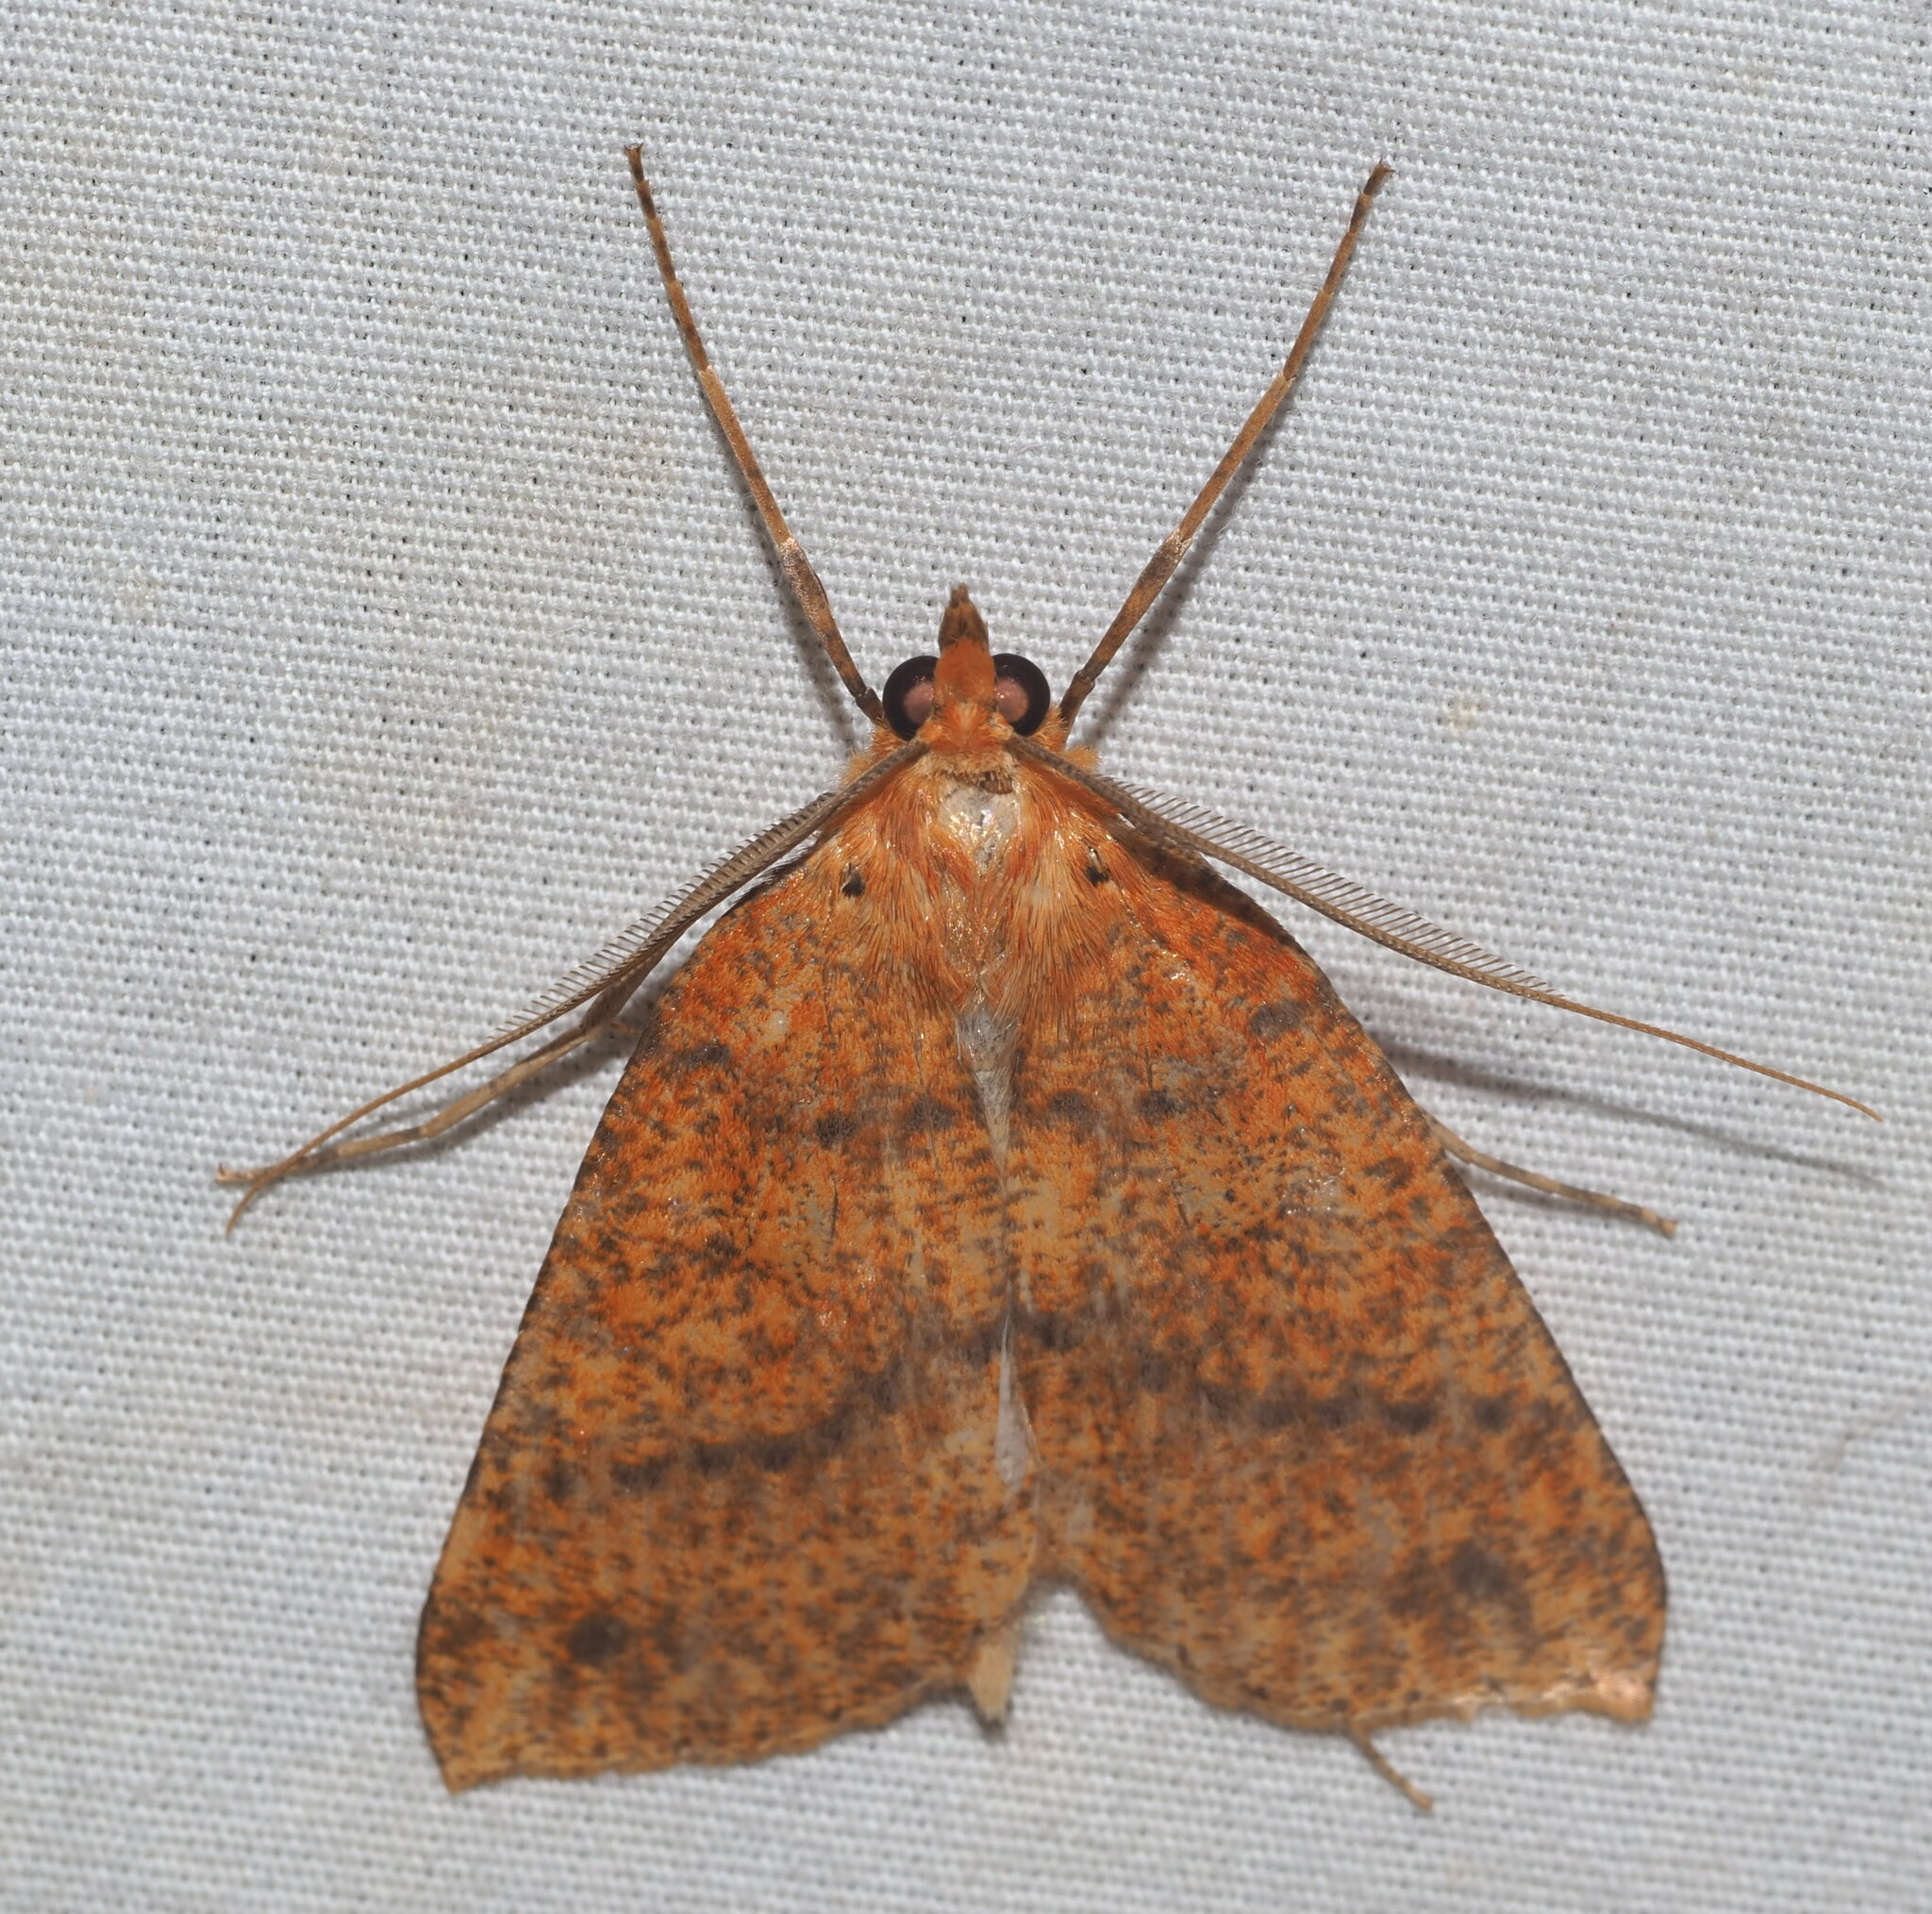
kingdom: Animalia
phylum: Arthropoda
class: Insecta
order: Lepidoptera
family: Geometridae
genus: Scotorythra
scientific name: Scotorythra epixantha
